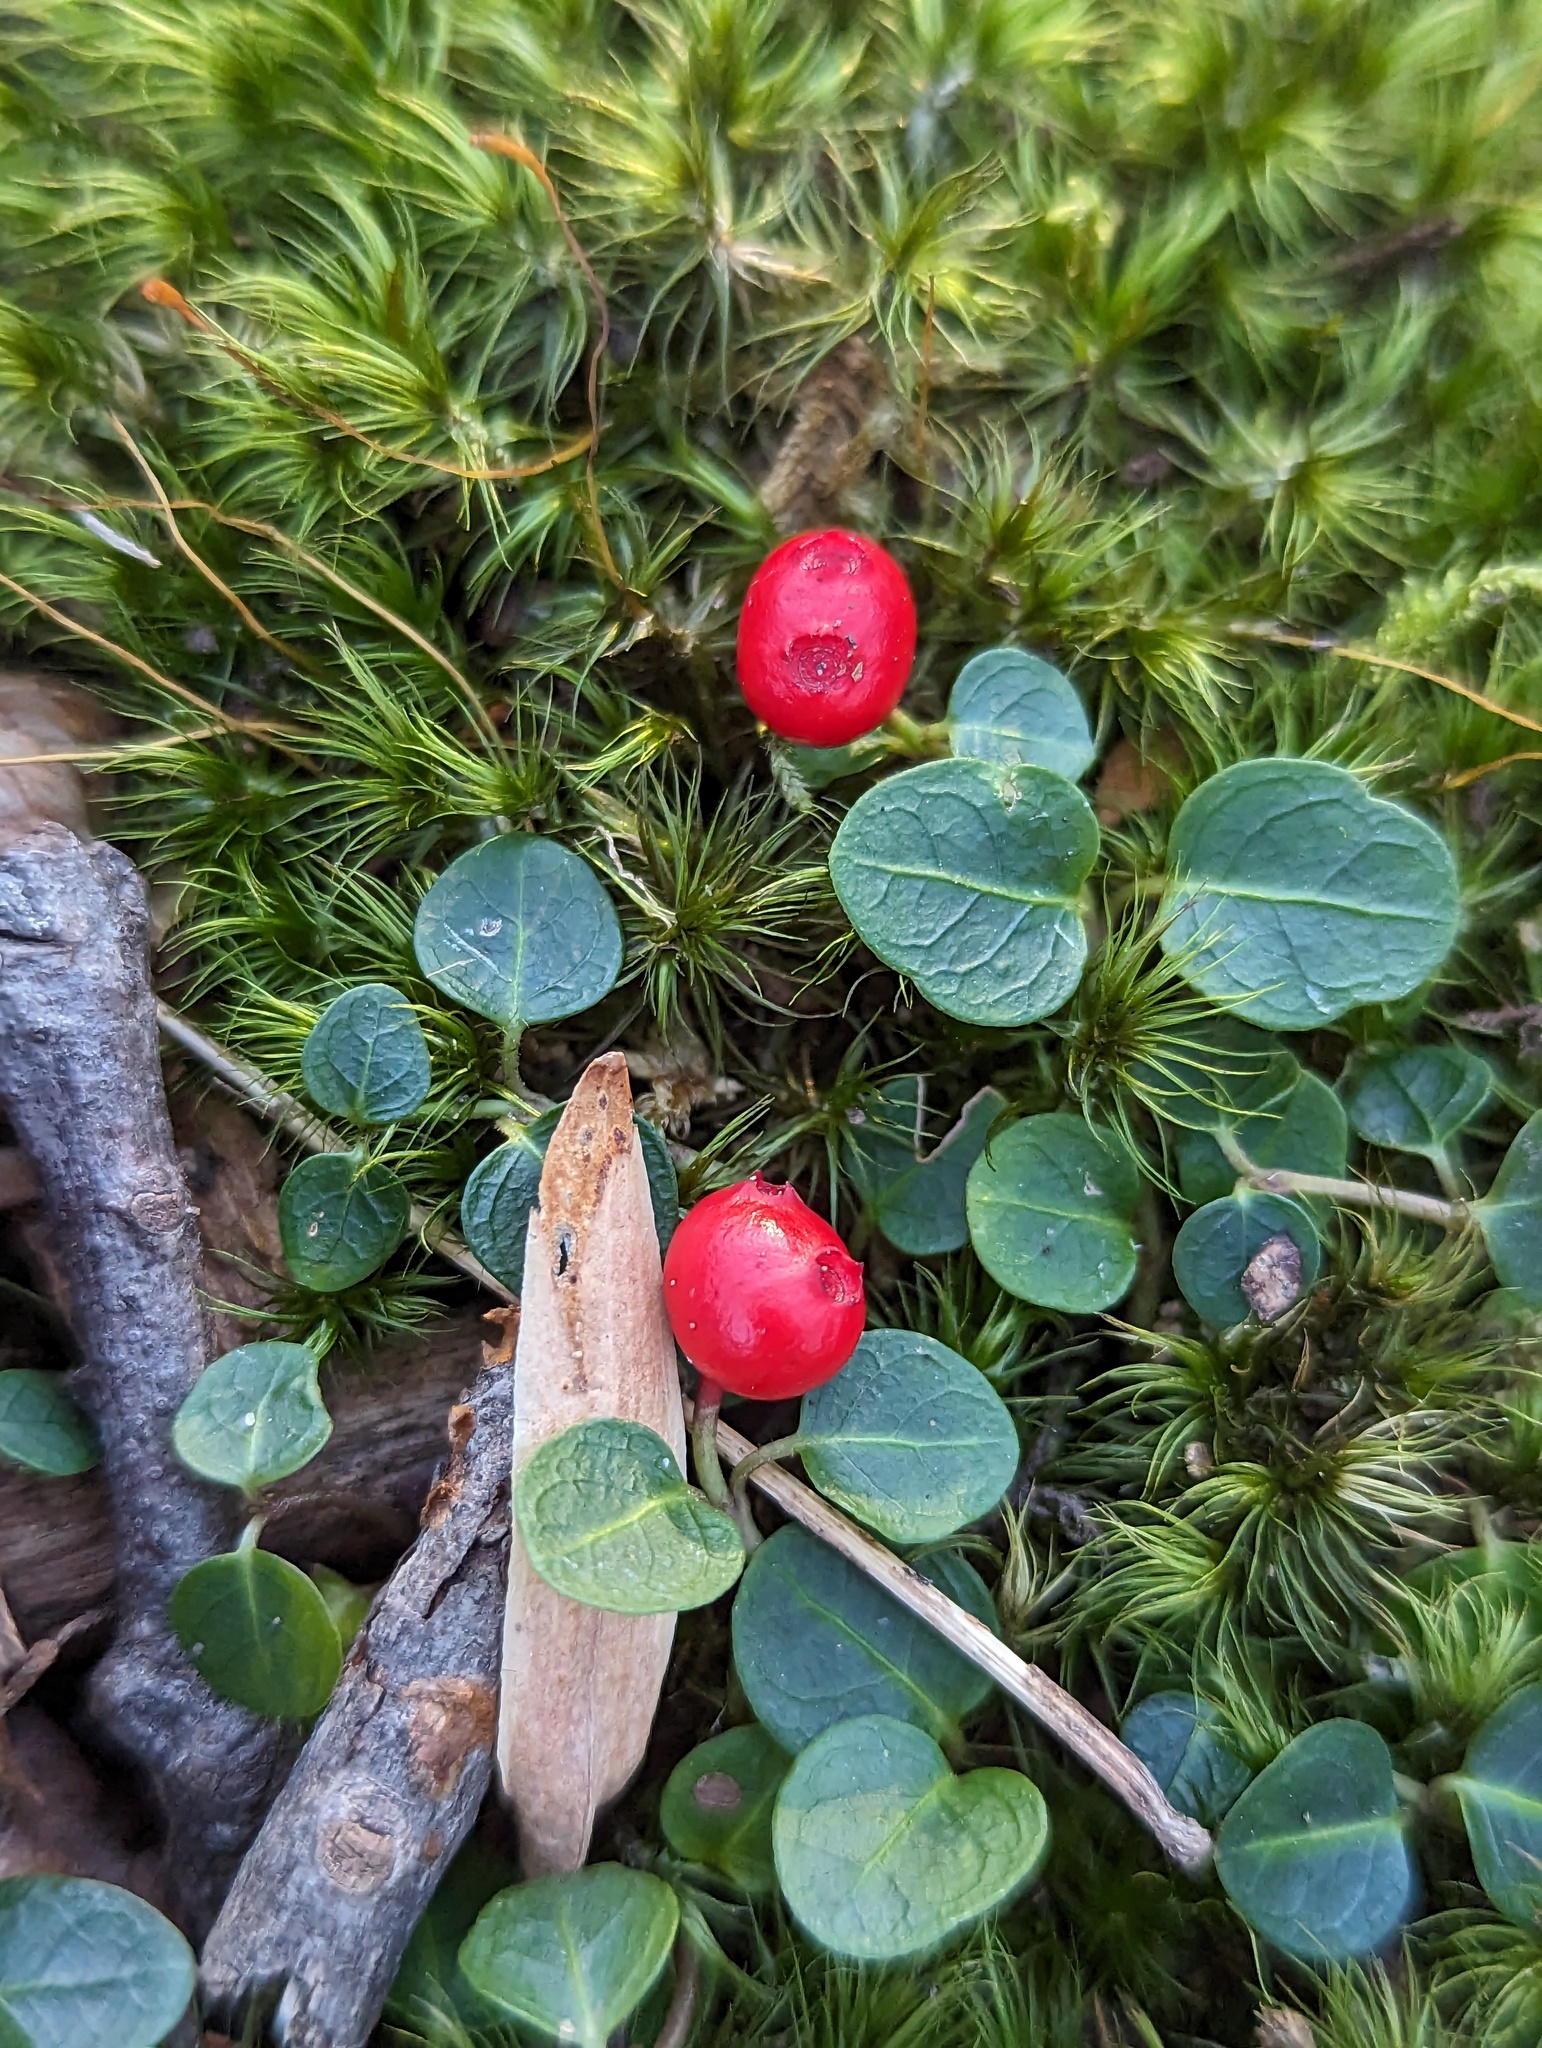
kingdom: Plantae
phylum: Tracheophyta
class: Magnoliopsida
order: Gentianales
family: Rubiaceae
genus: Mitchella
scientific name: Mitchella repens
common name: Partridge-berry
